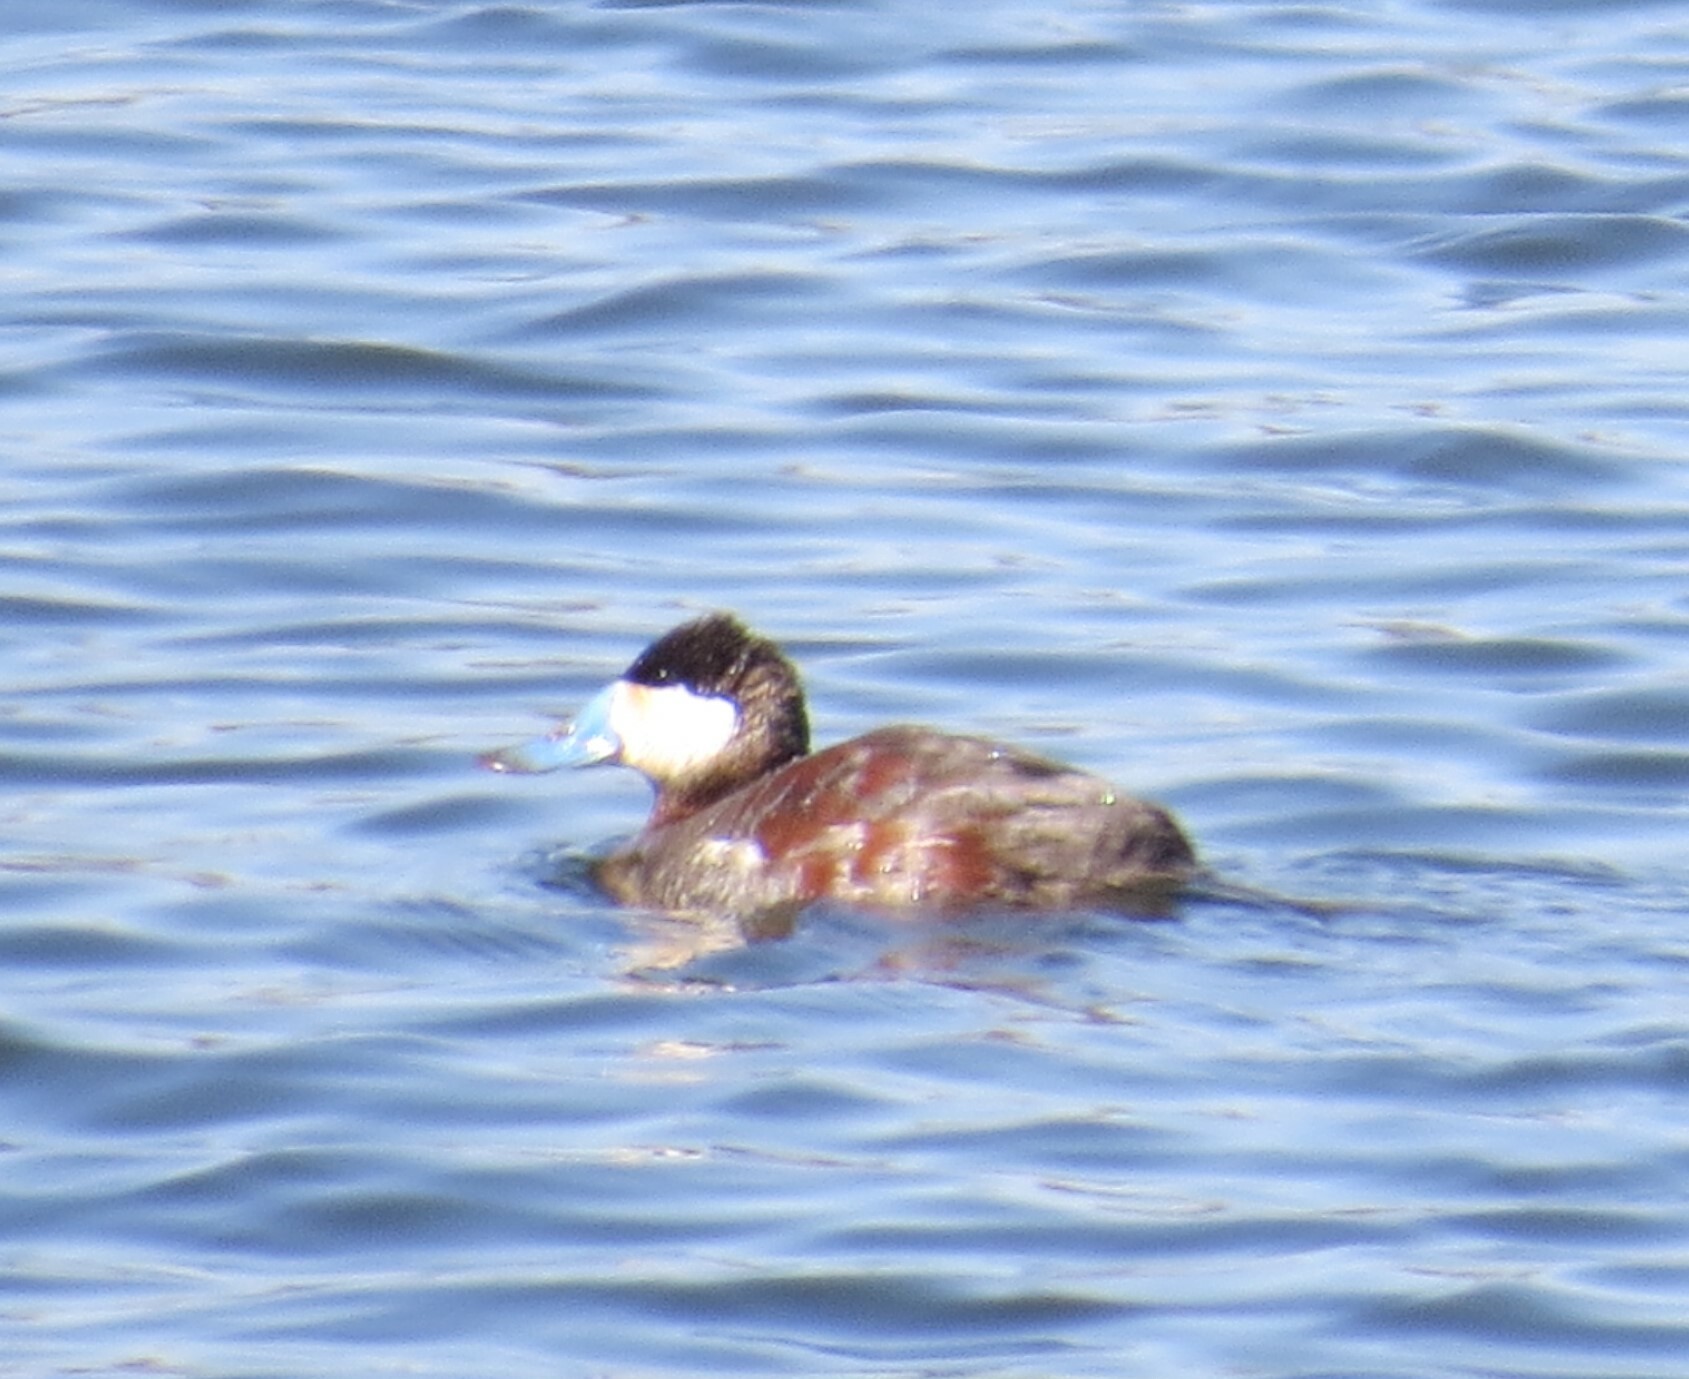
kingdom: Animalia
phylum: Chordata
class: Aves
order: Anseriformes
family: Anatidae
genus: Oxyura
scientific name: Oxyura jamaicensis
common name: Ruddy duck
